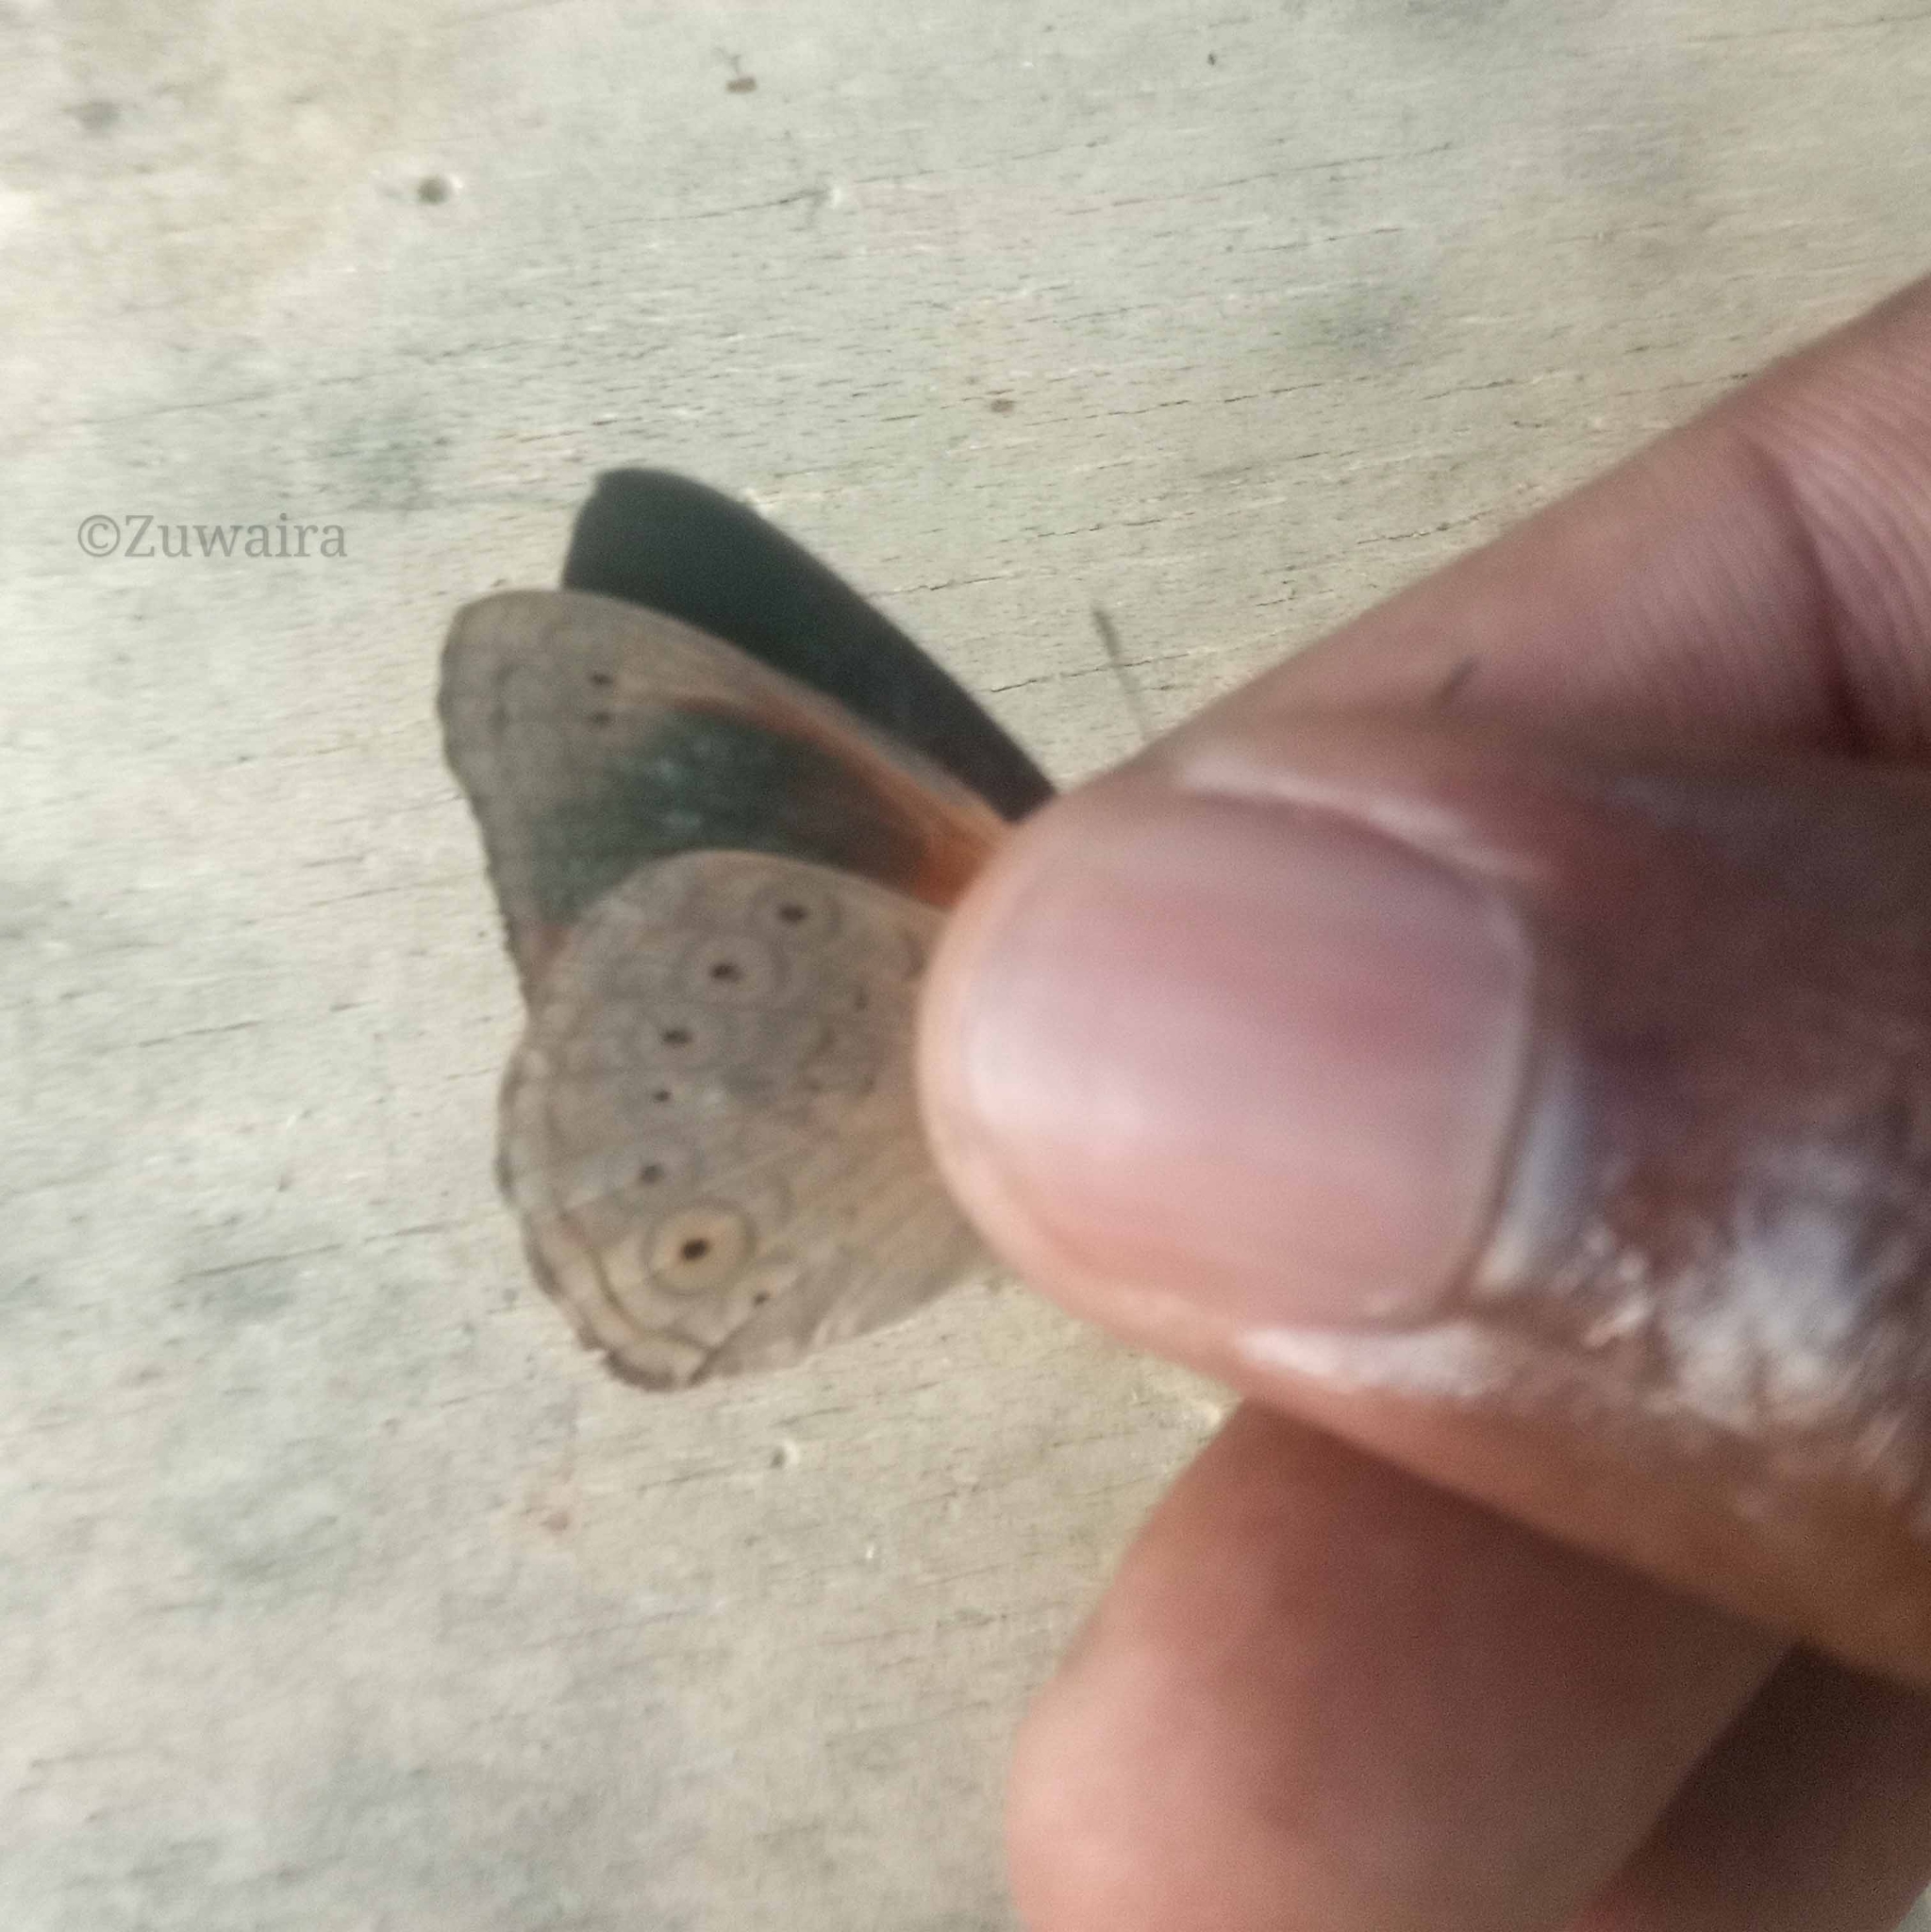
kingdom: Animalia
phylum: Arthropoda
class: Insecta
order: Lepidoptera
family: Nymphalidae
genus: Asterope
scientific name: Asterope occidentalium
